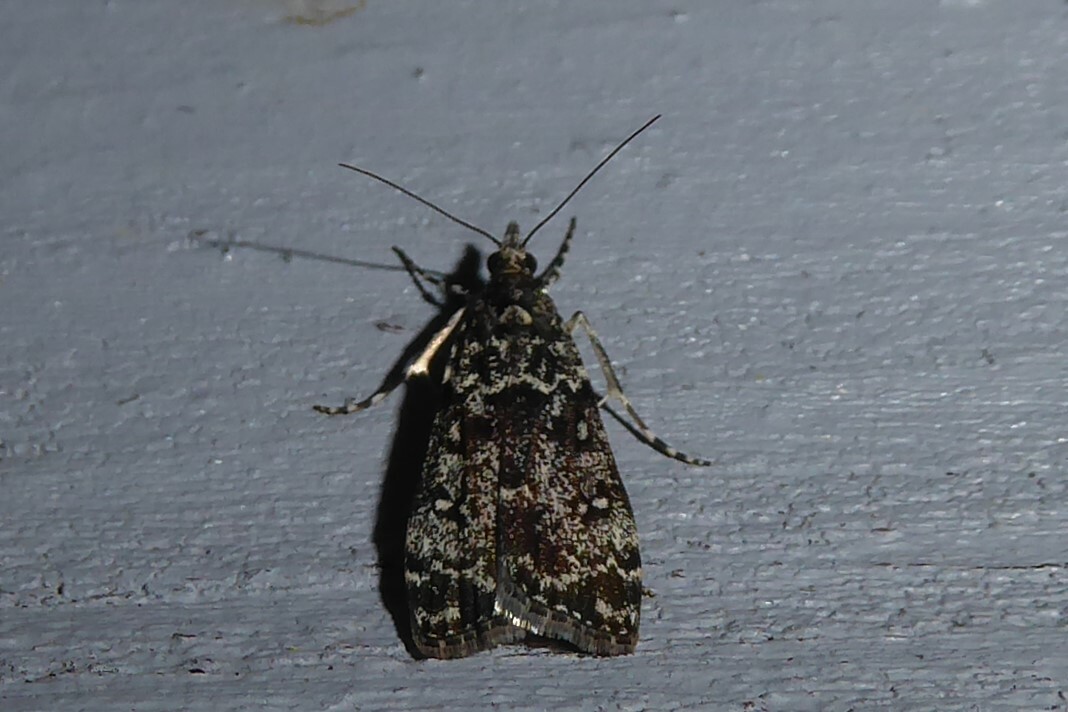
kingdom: Animalia
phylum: Arthropoda
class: Insecta
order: Lepidoptera
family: Crambidae
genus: Eudonia
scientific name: Eudonia philerga
